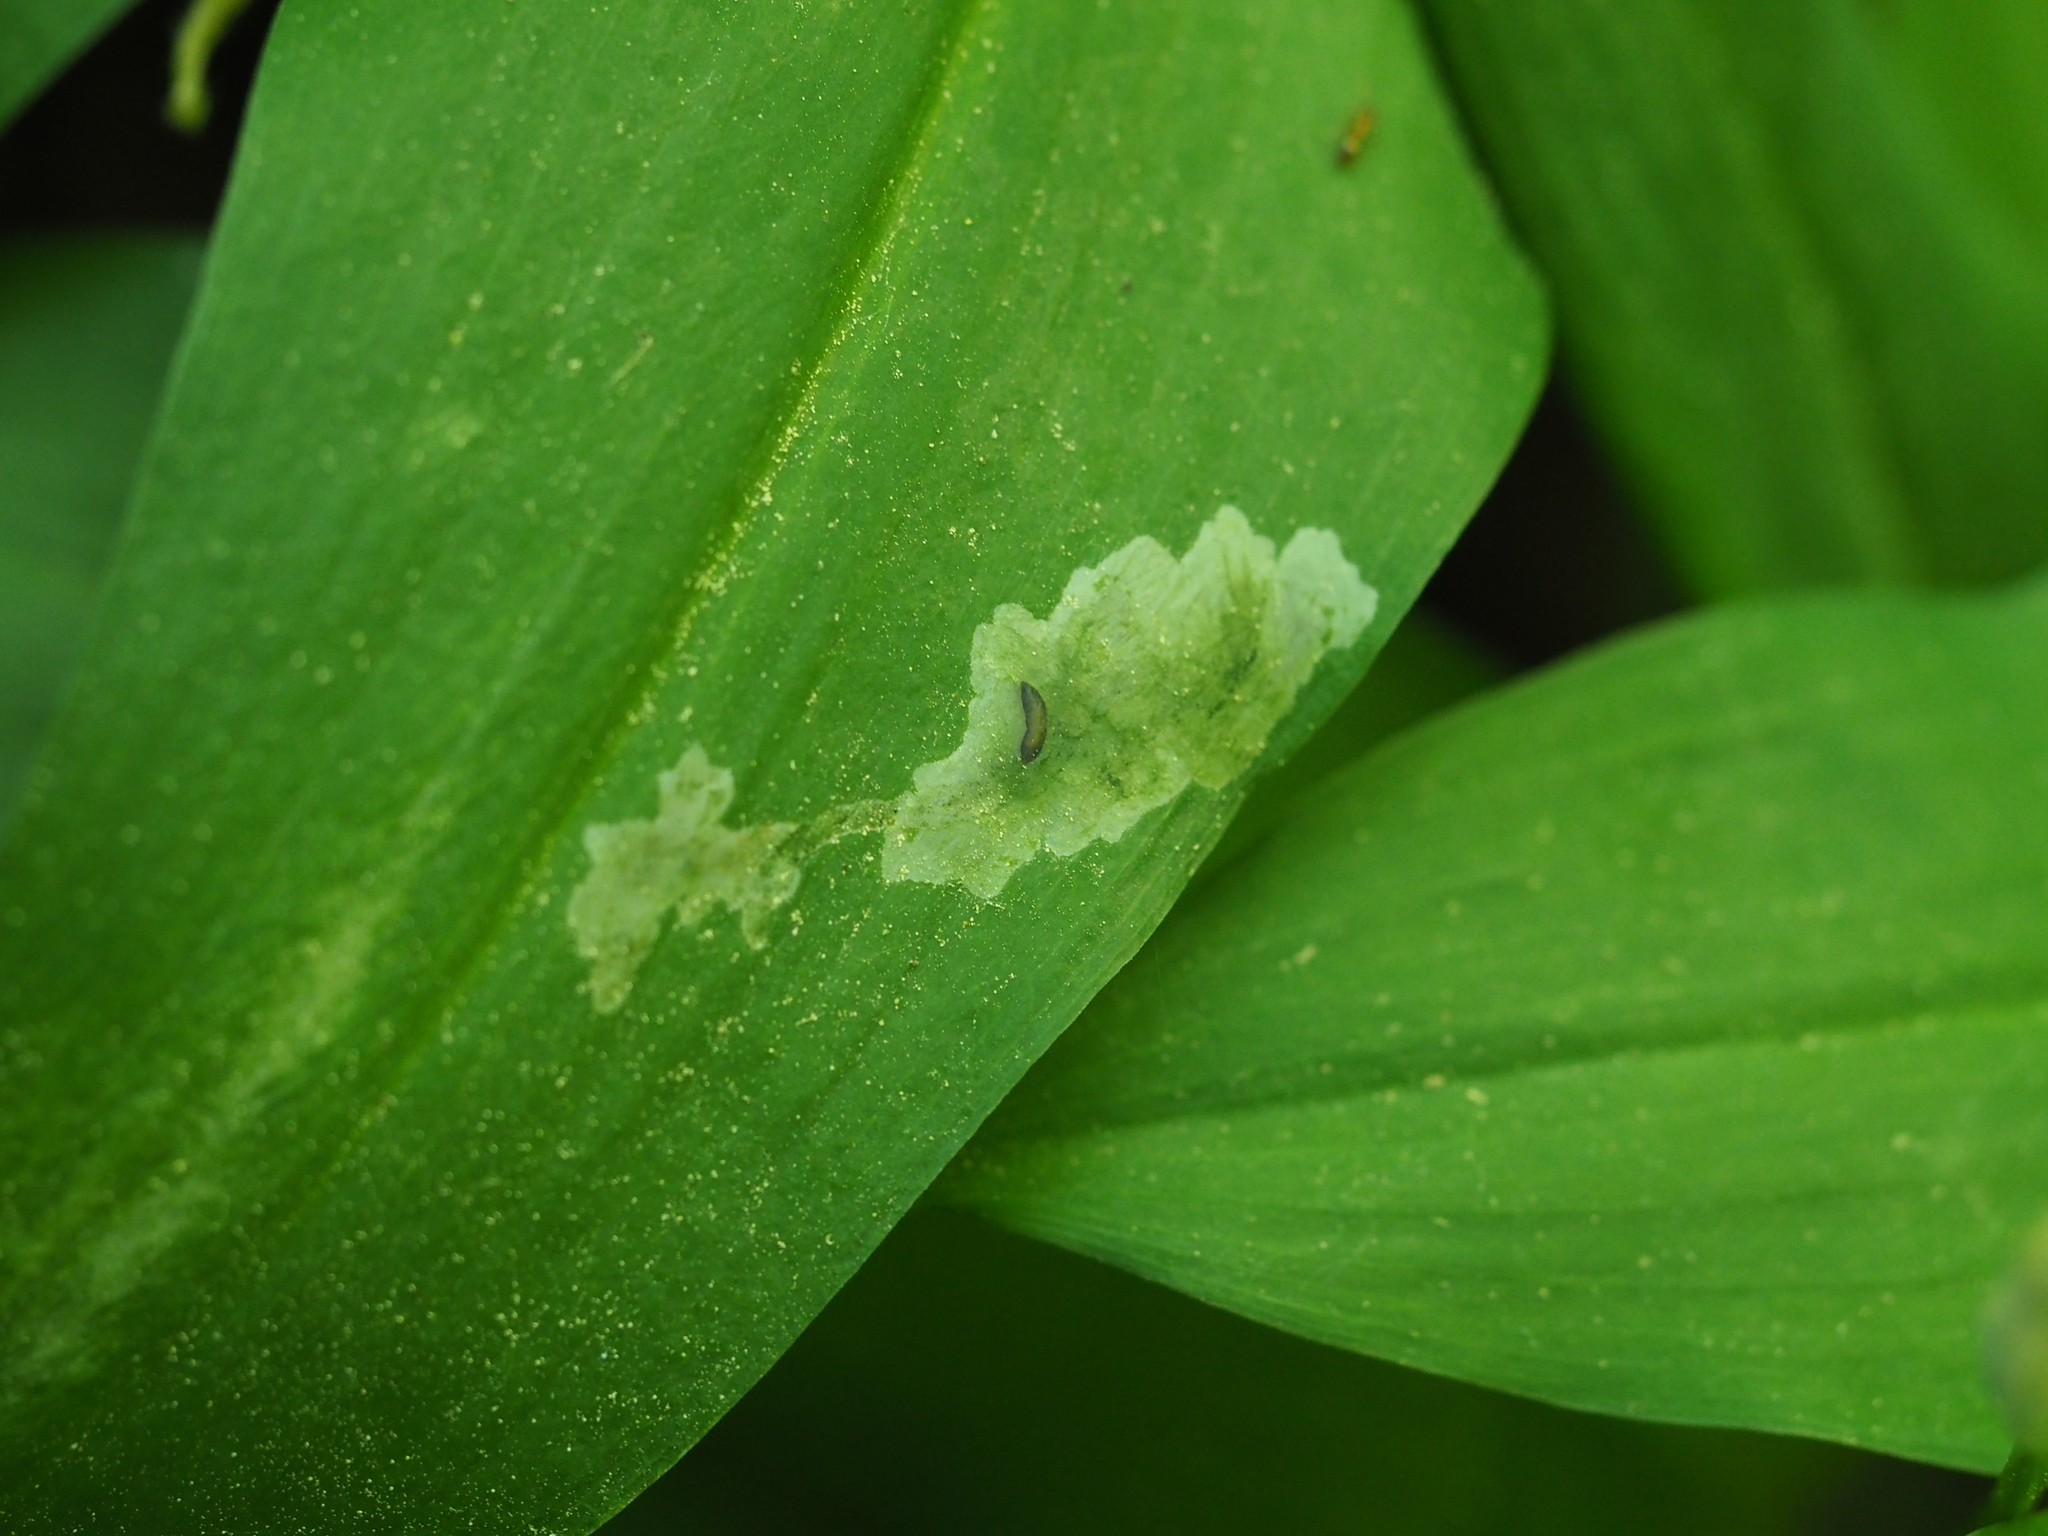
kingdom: Animalia
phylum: Arthropoda
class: Insecta
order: Diptera
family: Syrphidae
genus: Cheilosia
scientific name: Cheilosia fasciata
